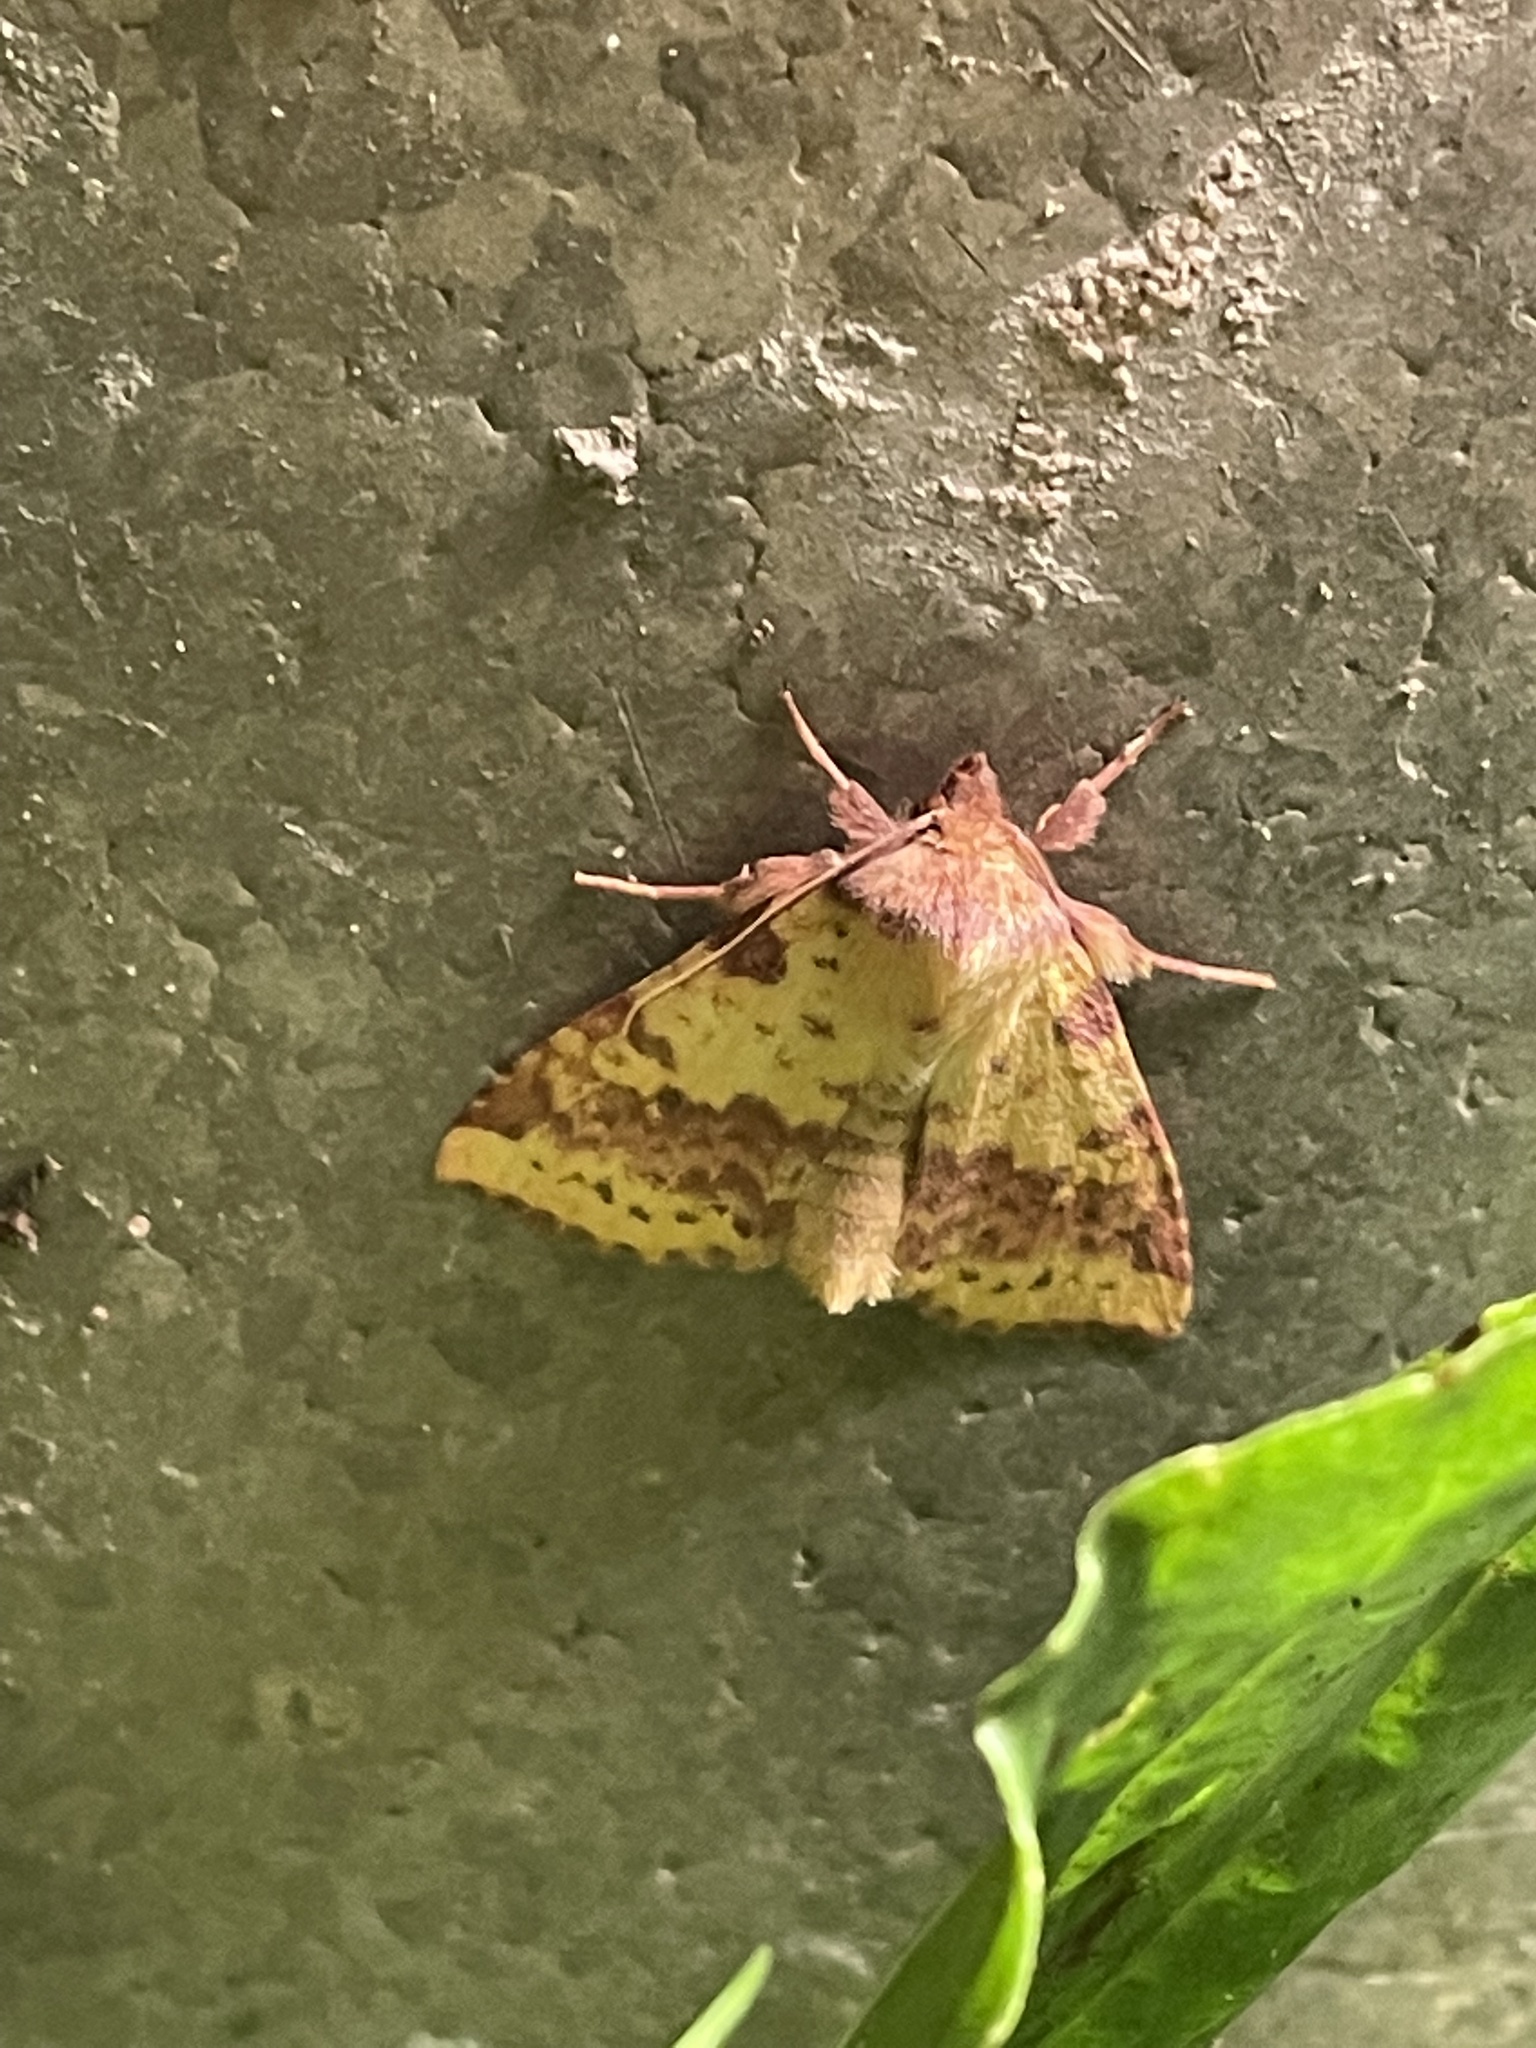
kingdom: Animalia
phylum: Arthropoda
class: Insecta
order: Lepidoptera
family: Noctuidae
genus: Xanthia
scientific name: Xanthia togata
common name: Pink-barred sallow
